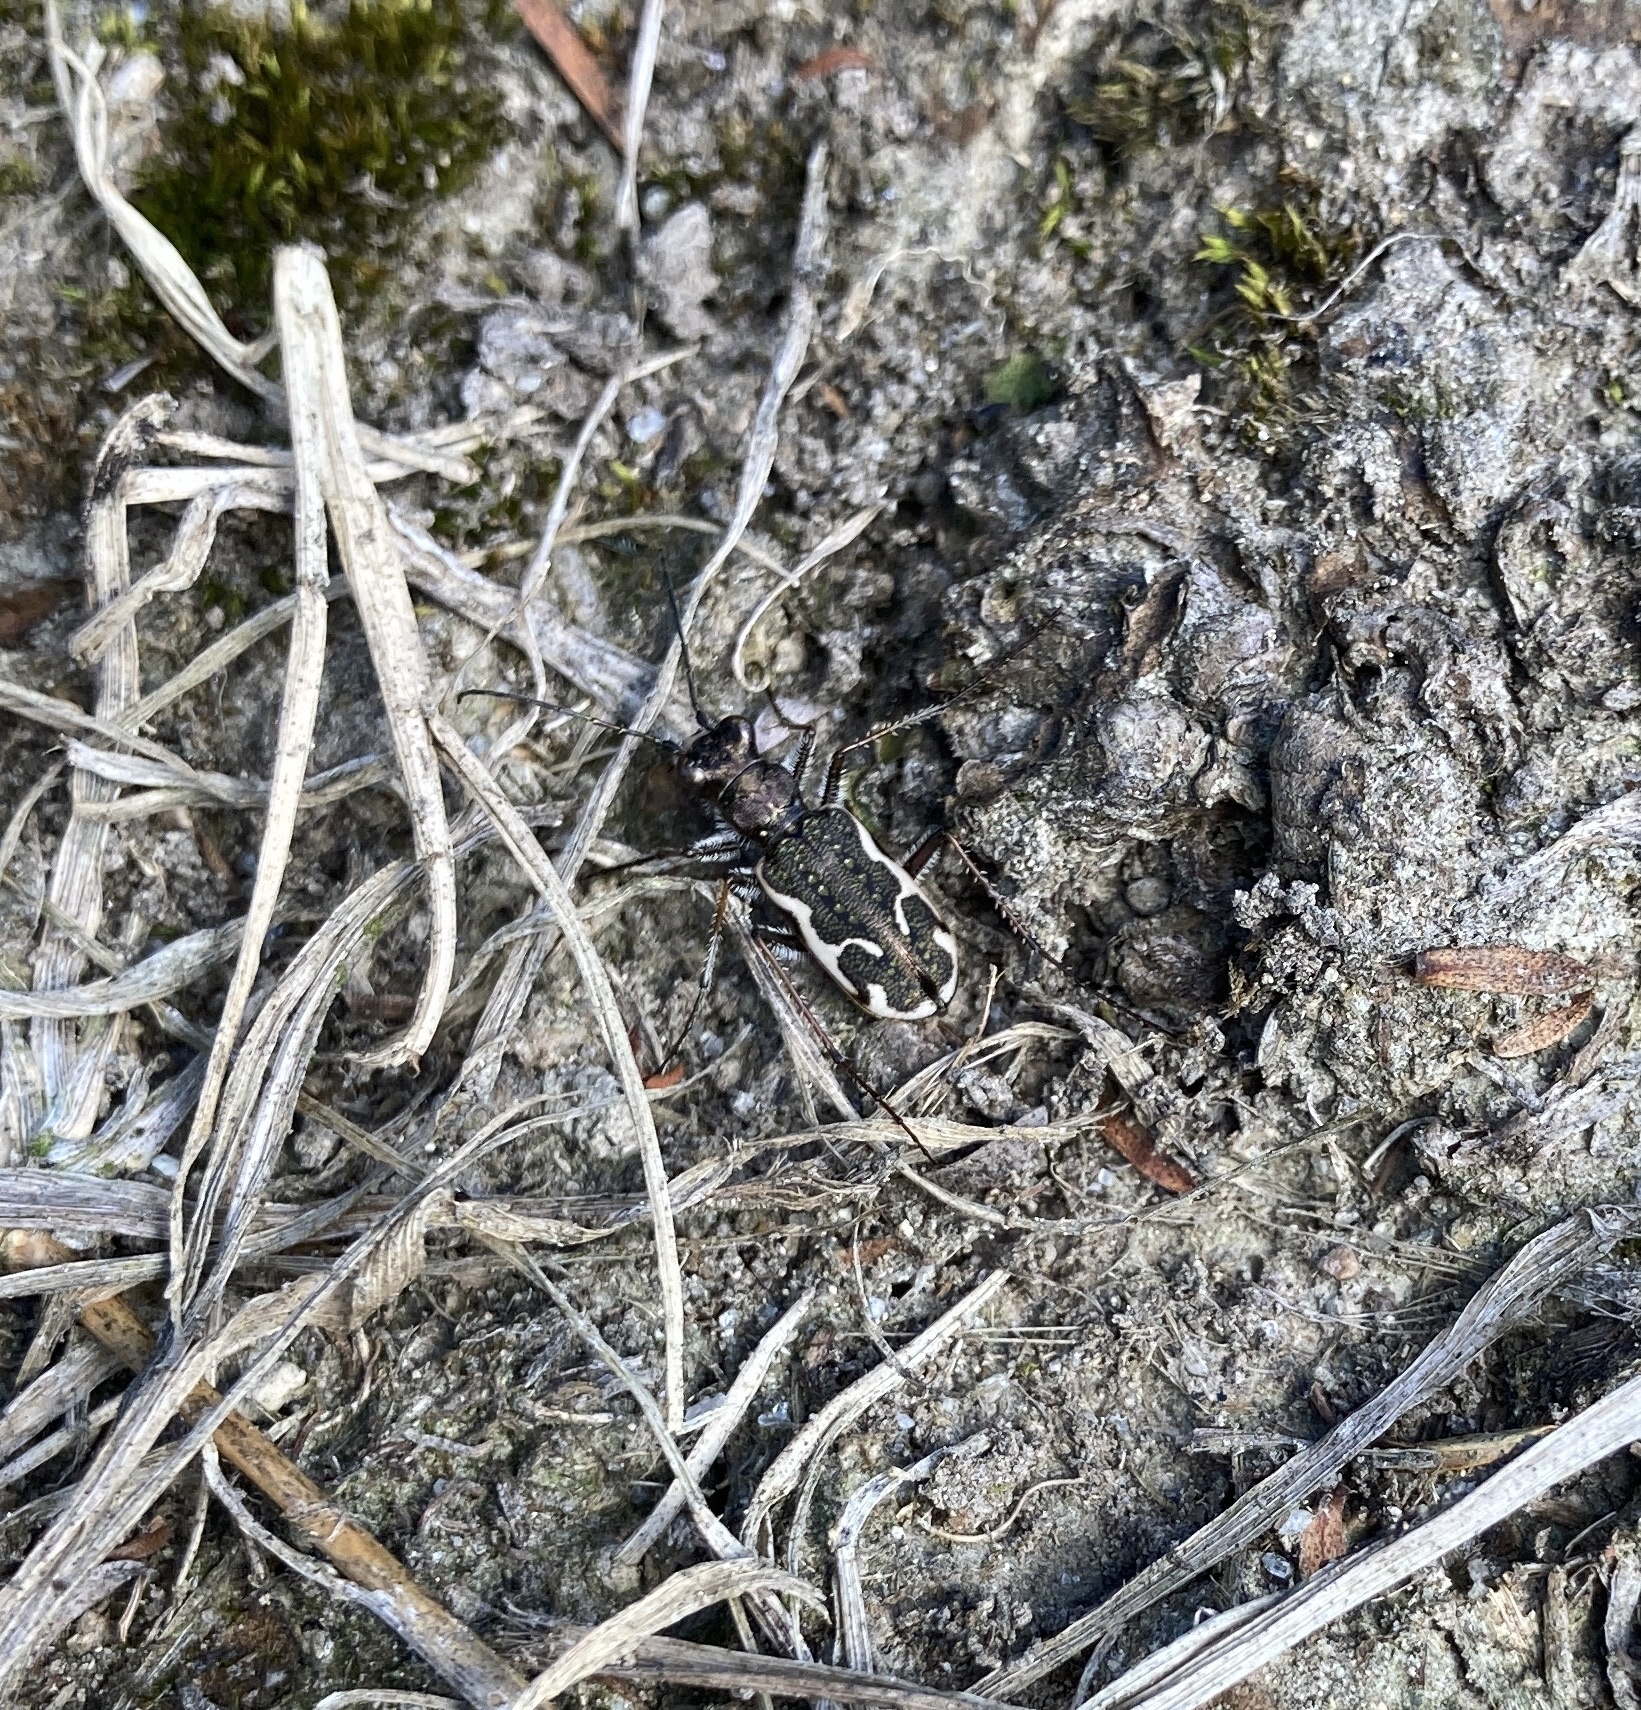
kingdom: Animalia
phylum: Arthropoda
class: Insecta
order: Coleoptera
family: Carabidae
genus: Neocicindela
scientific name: Neocicindela tuberculata
